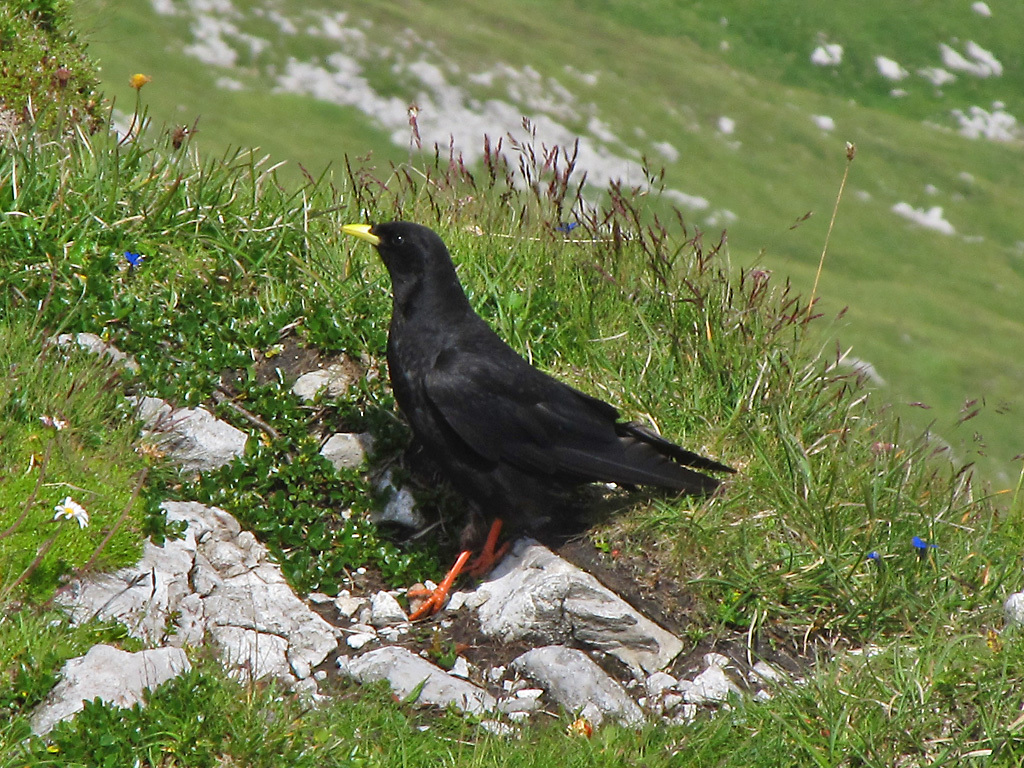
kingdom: Animalia
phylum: Chordata
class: Aves
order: Passeriformes
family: Corvidae
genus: Pyrrhocorax
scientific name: Pyrrhocorax graculus
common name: Alpine chough
